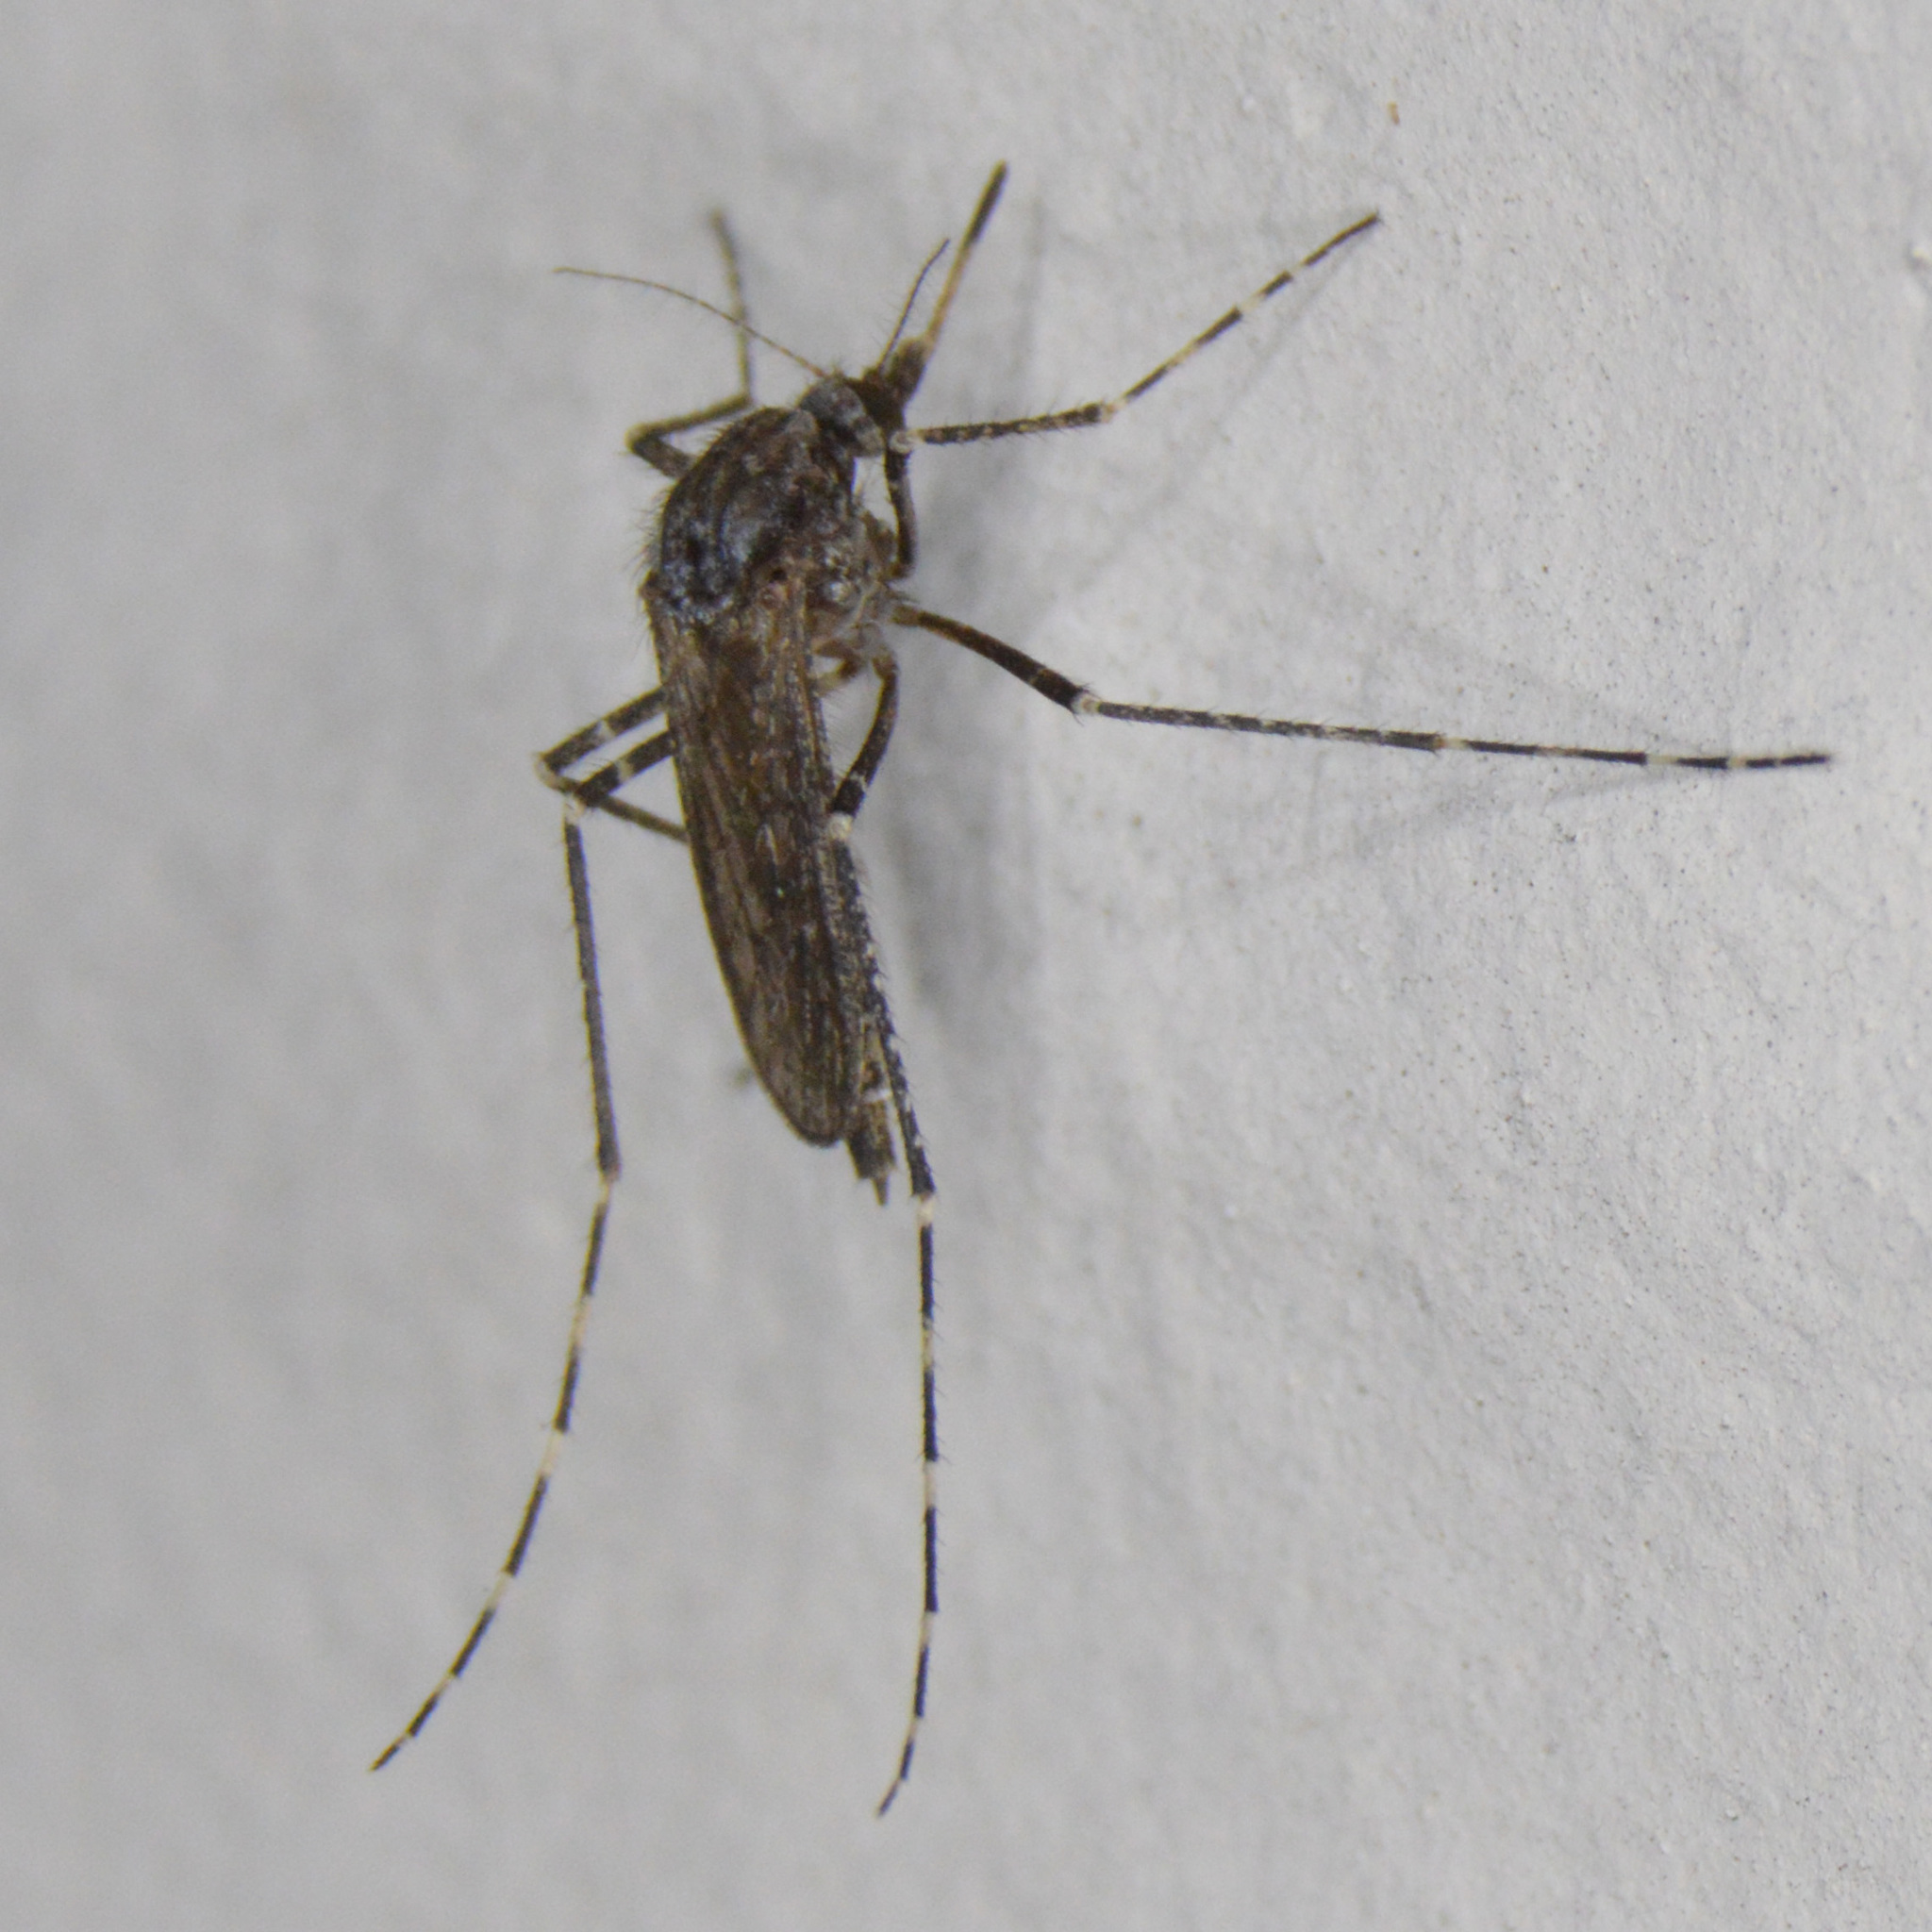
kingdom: Animalia
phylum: Arthropoda
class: Insecta
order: Diptera
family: Culicidae
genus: Psorophora
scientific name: Psorophora columbiae
